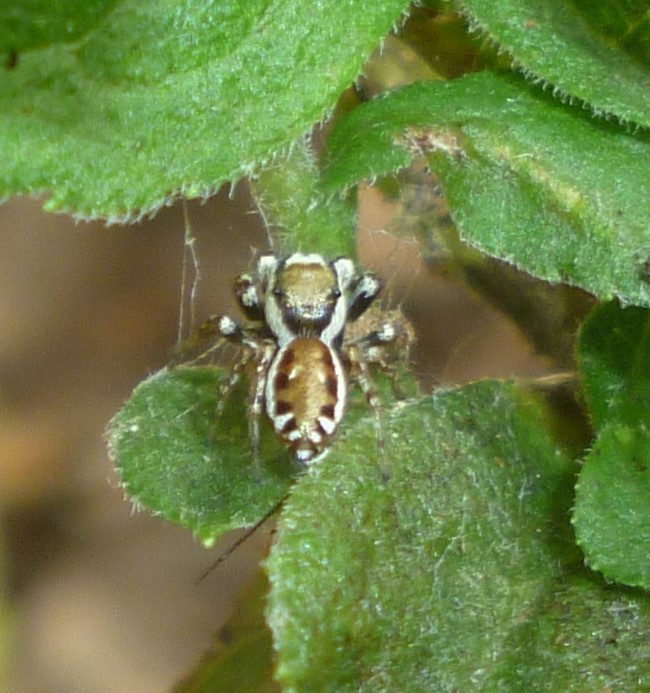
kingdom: Animalia
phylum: Arthropoda
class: Arachnida
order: Araneae
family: Salticidae
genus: Pelegrina
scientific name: Pelegrina proterva
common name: Common white-cheeked jumping spider
